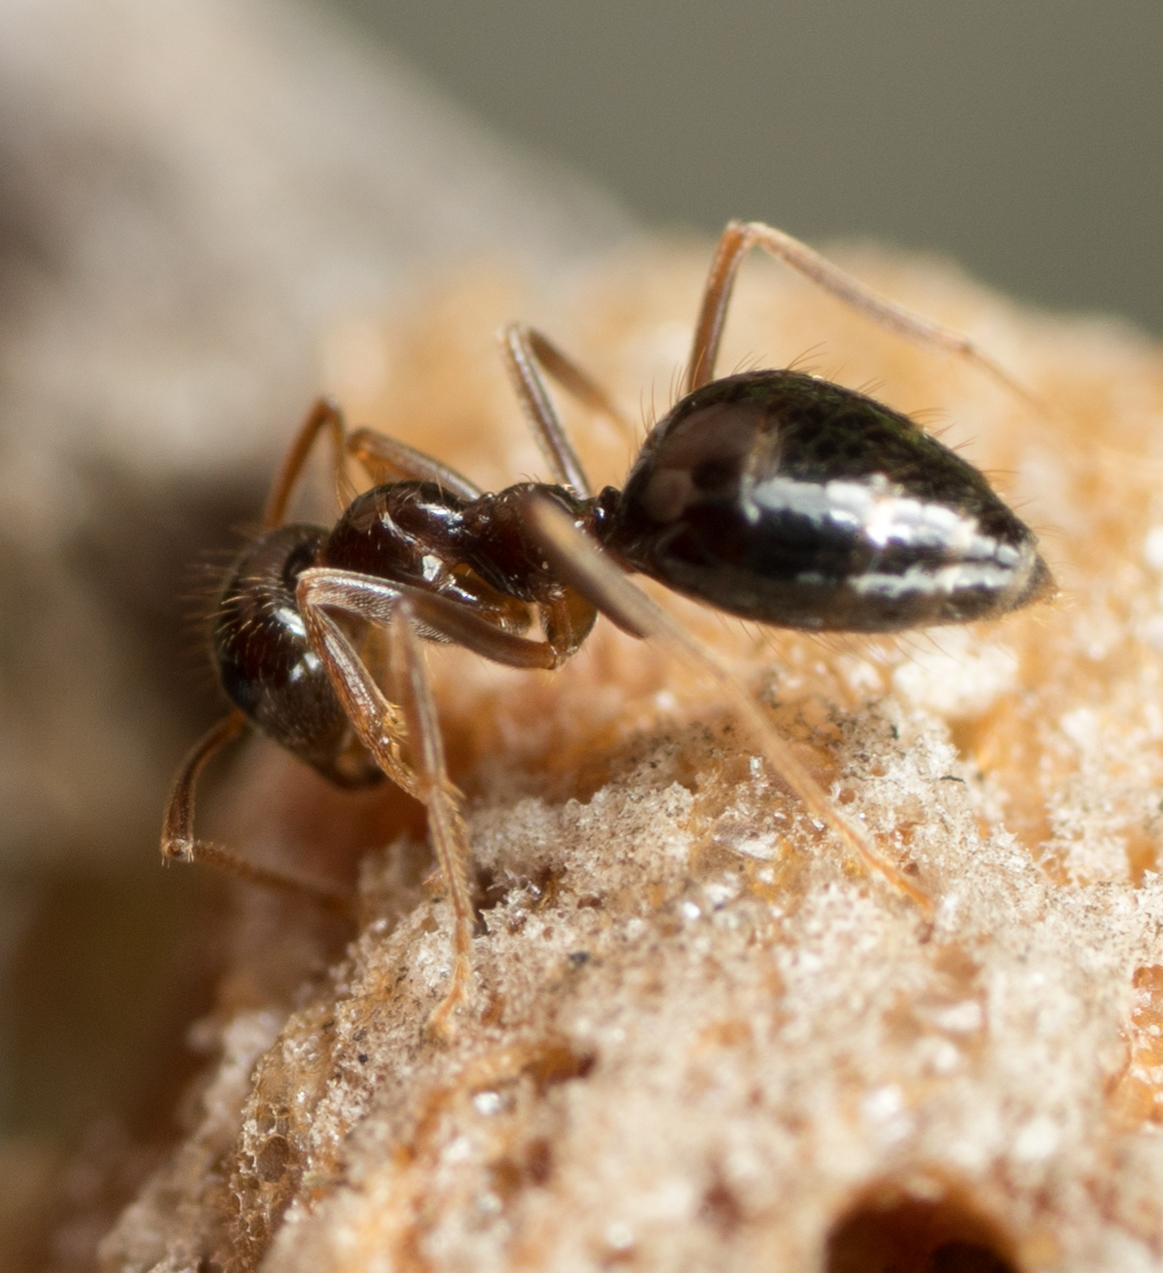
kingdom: Animalia
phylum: Arthropoda
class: Insecta
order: Hymenoptera
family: Formicidae
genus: Prenolepis
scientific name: Prenolepis imparis
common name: Small honey ant
